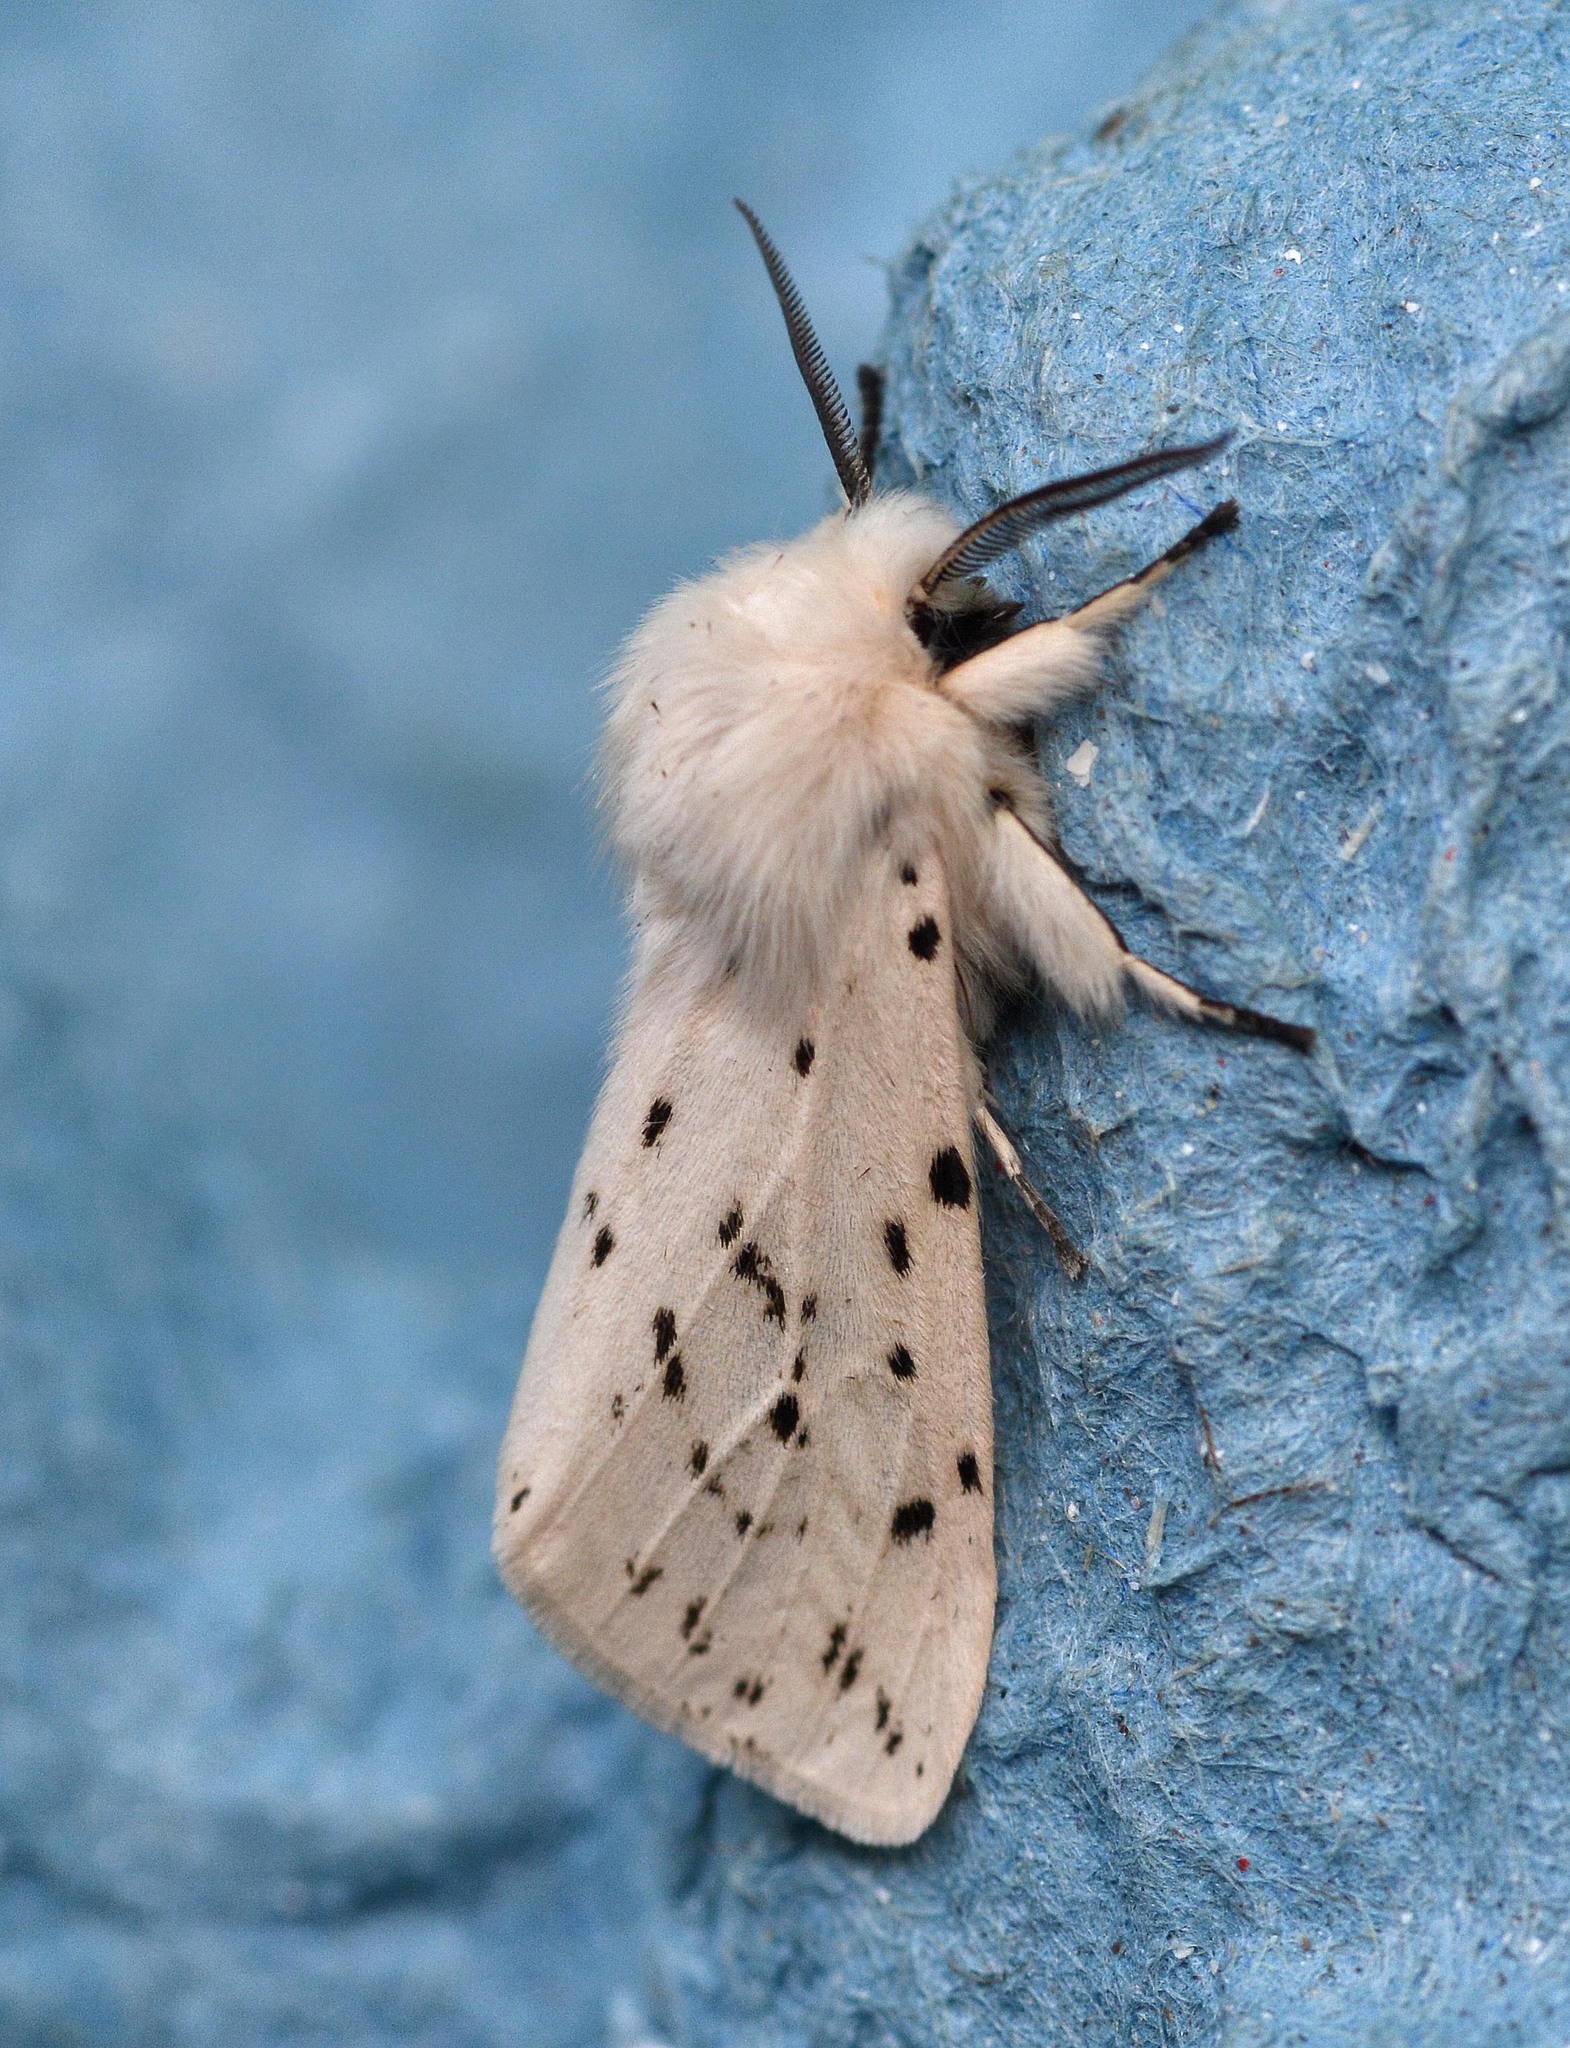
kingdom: Animalia
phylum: Arthropoda
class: Insecta
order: Lepidoptera
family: Erebidae
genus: Spilosoma
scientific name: Spilosoma lubricipeda
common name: White ermine
